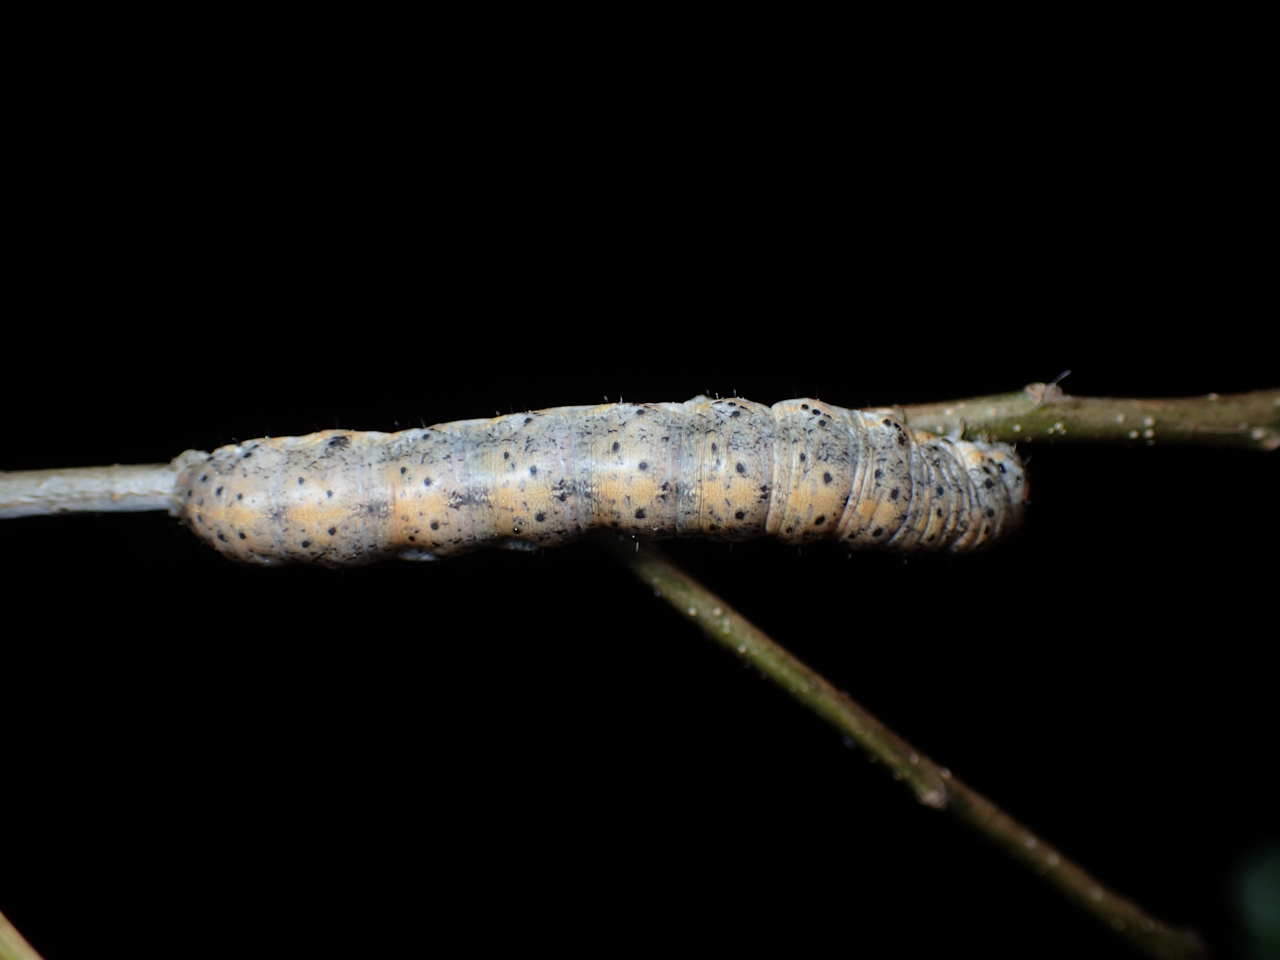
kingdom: Animalia
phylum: Arthropoda
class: Insecta
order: Lepidoptera
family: Noctuidae
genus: Metaxaglaea
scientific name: Metaxaglaea violacea
